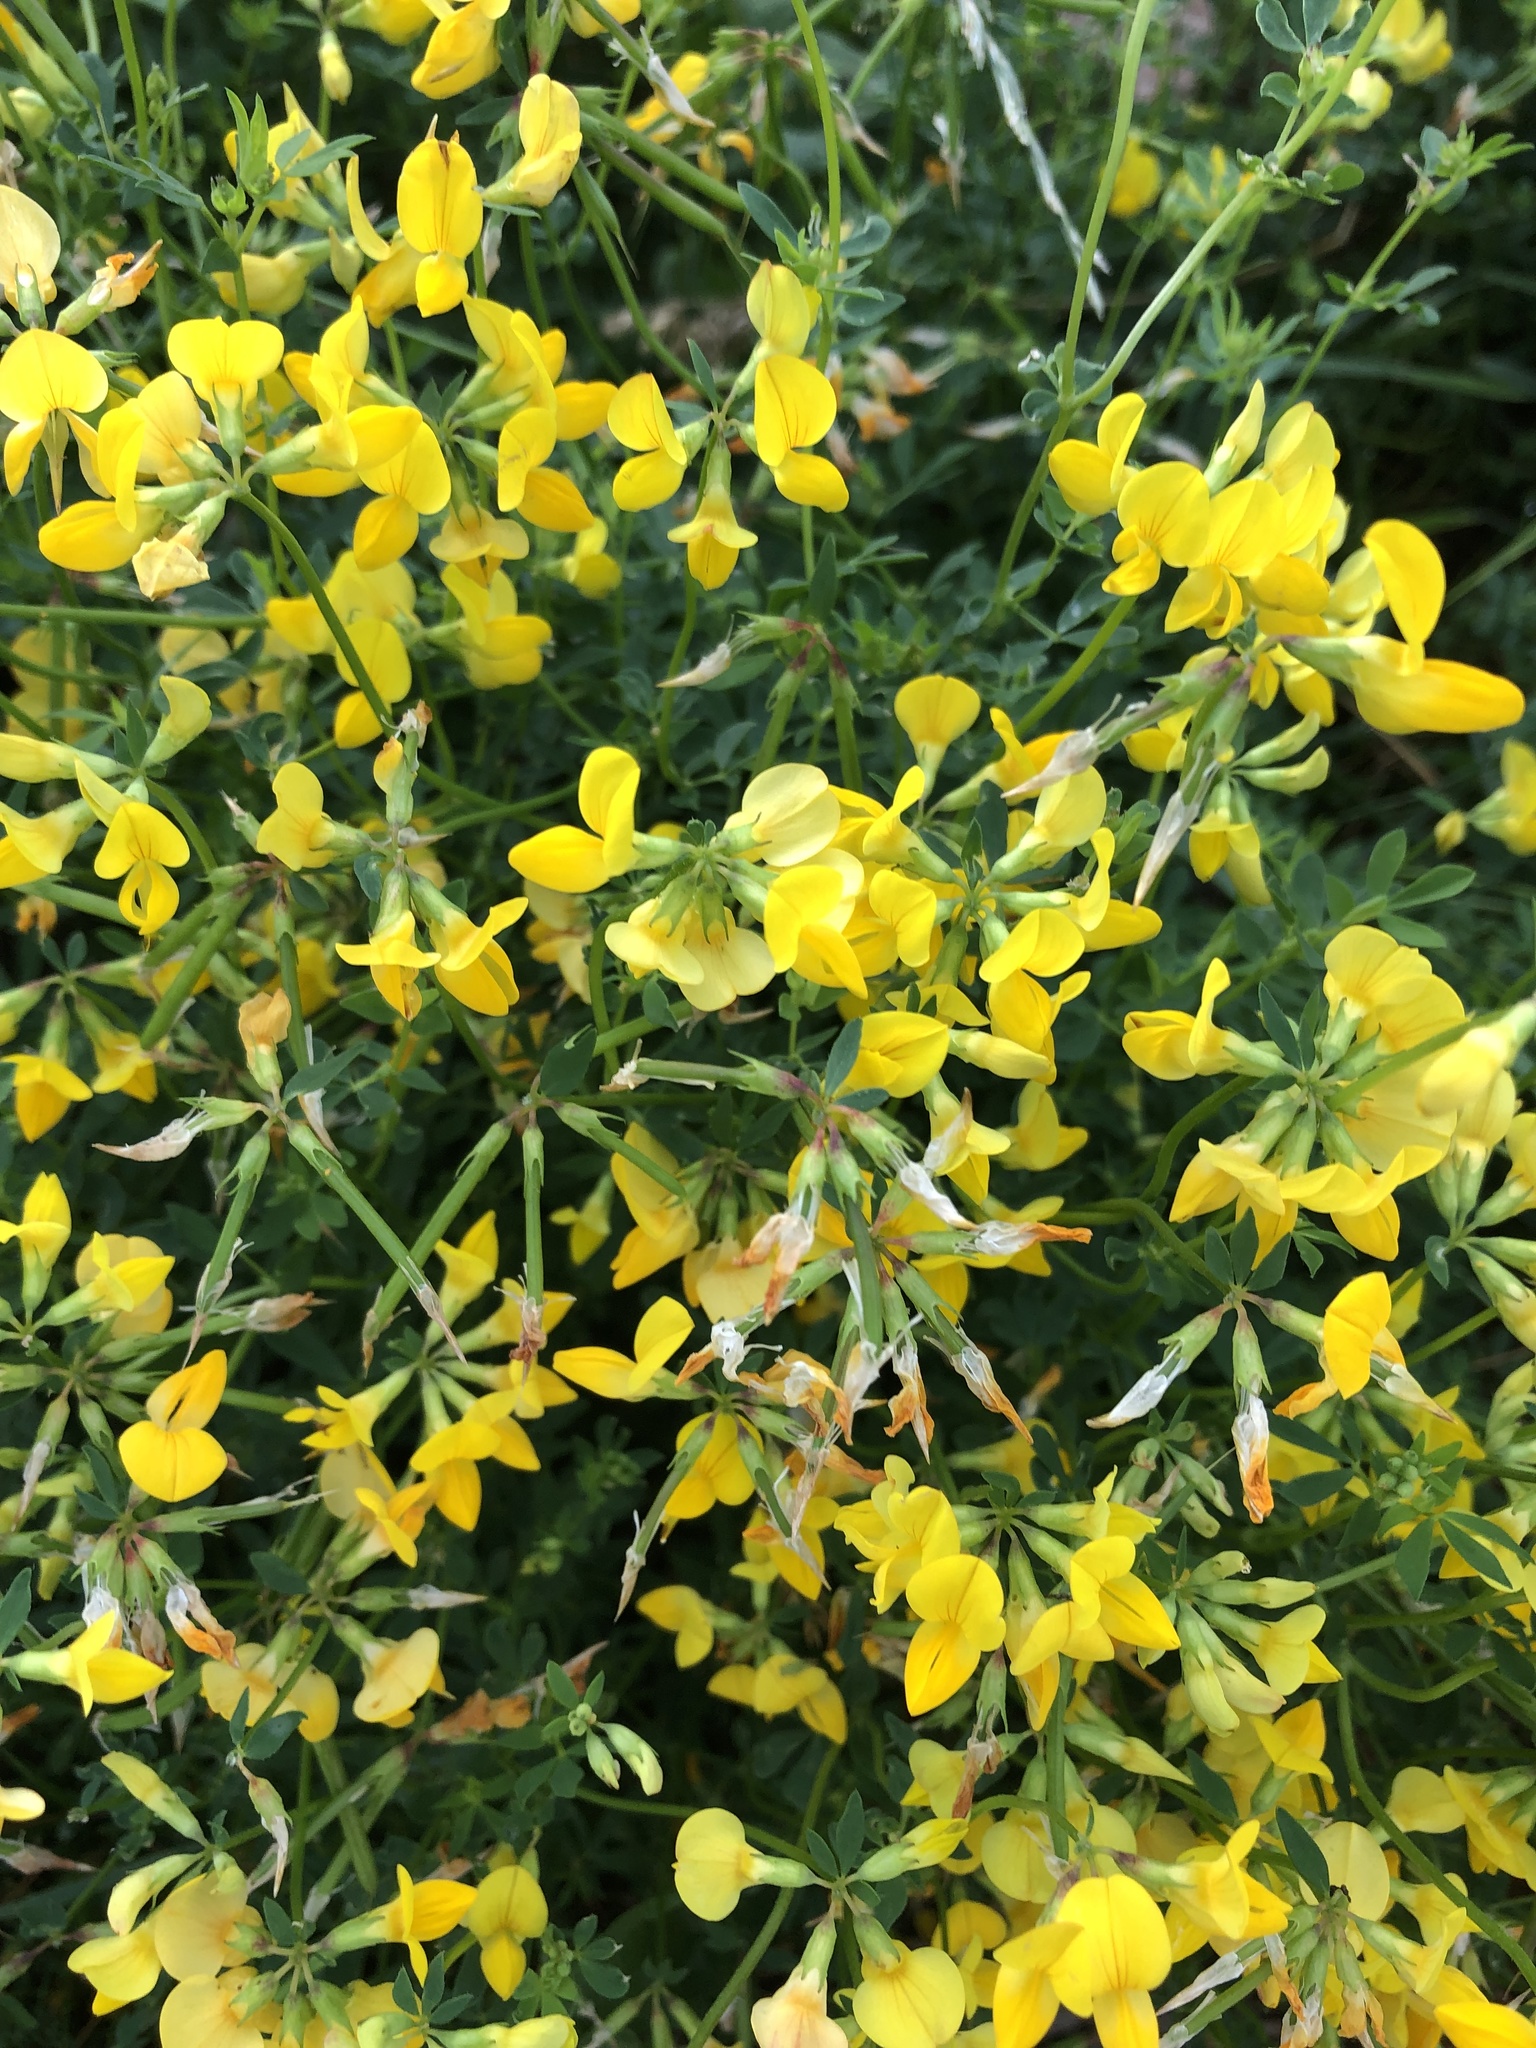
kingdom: Plantae
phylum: Tracheophyta
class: Magnoliopsida
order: Fabales
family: Fabaceae
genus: Lotus
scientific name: Lotus corniculatus
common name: Common bird's-foot-trefoil
